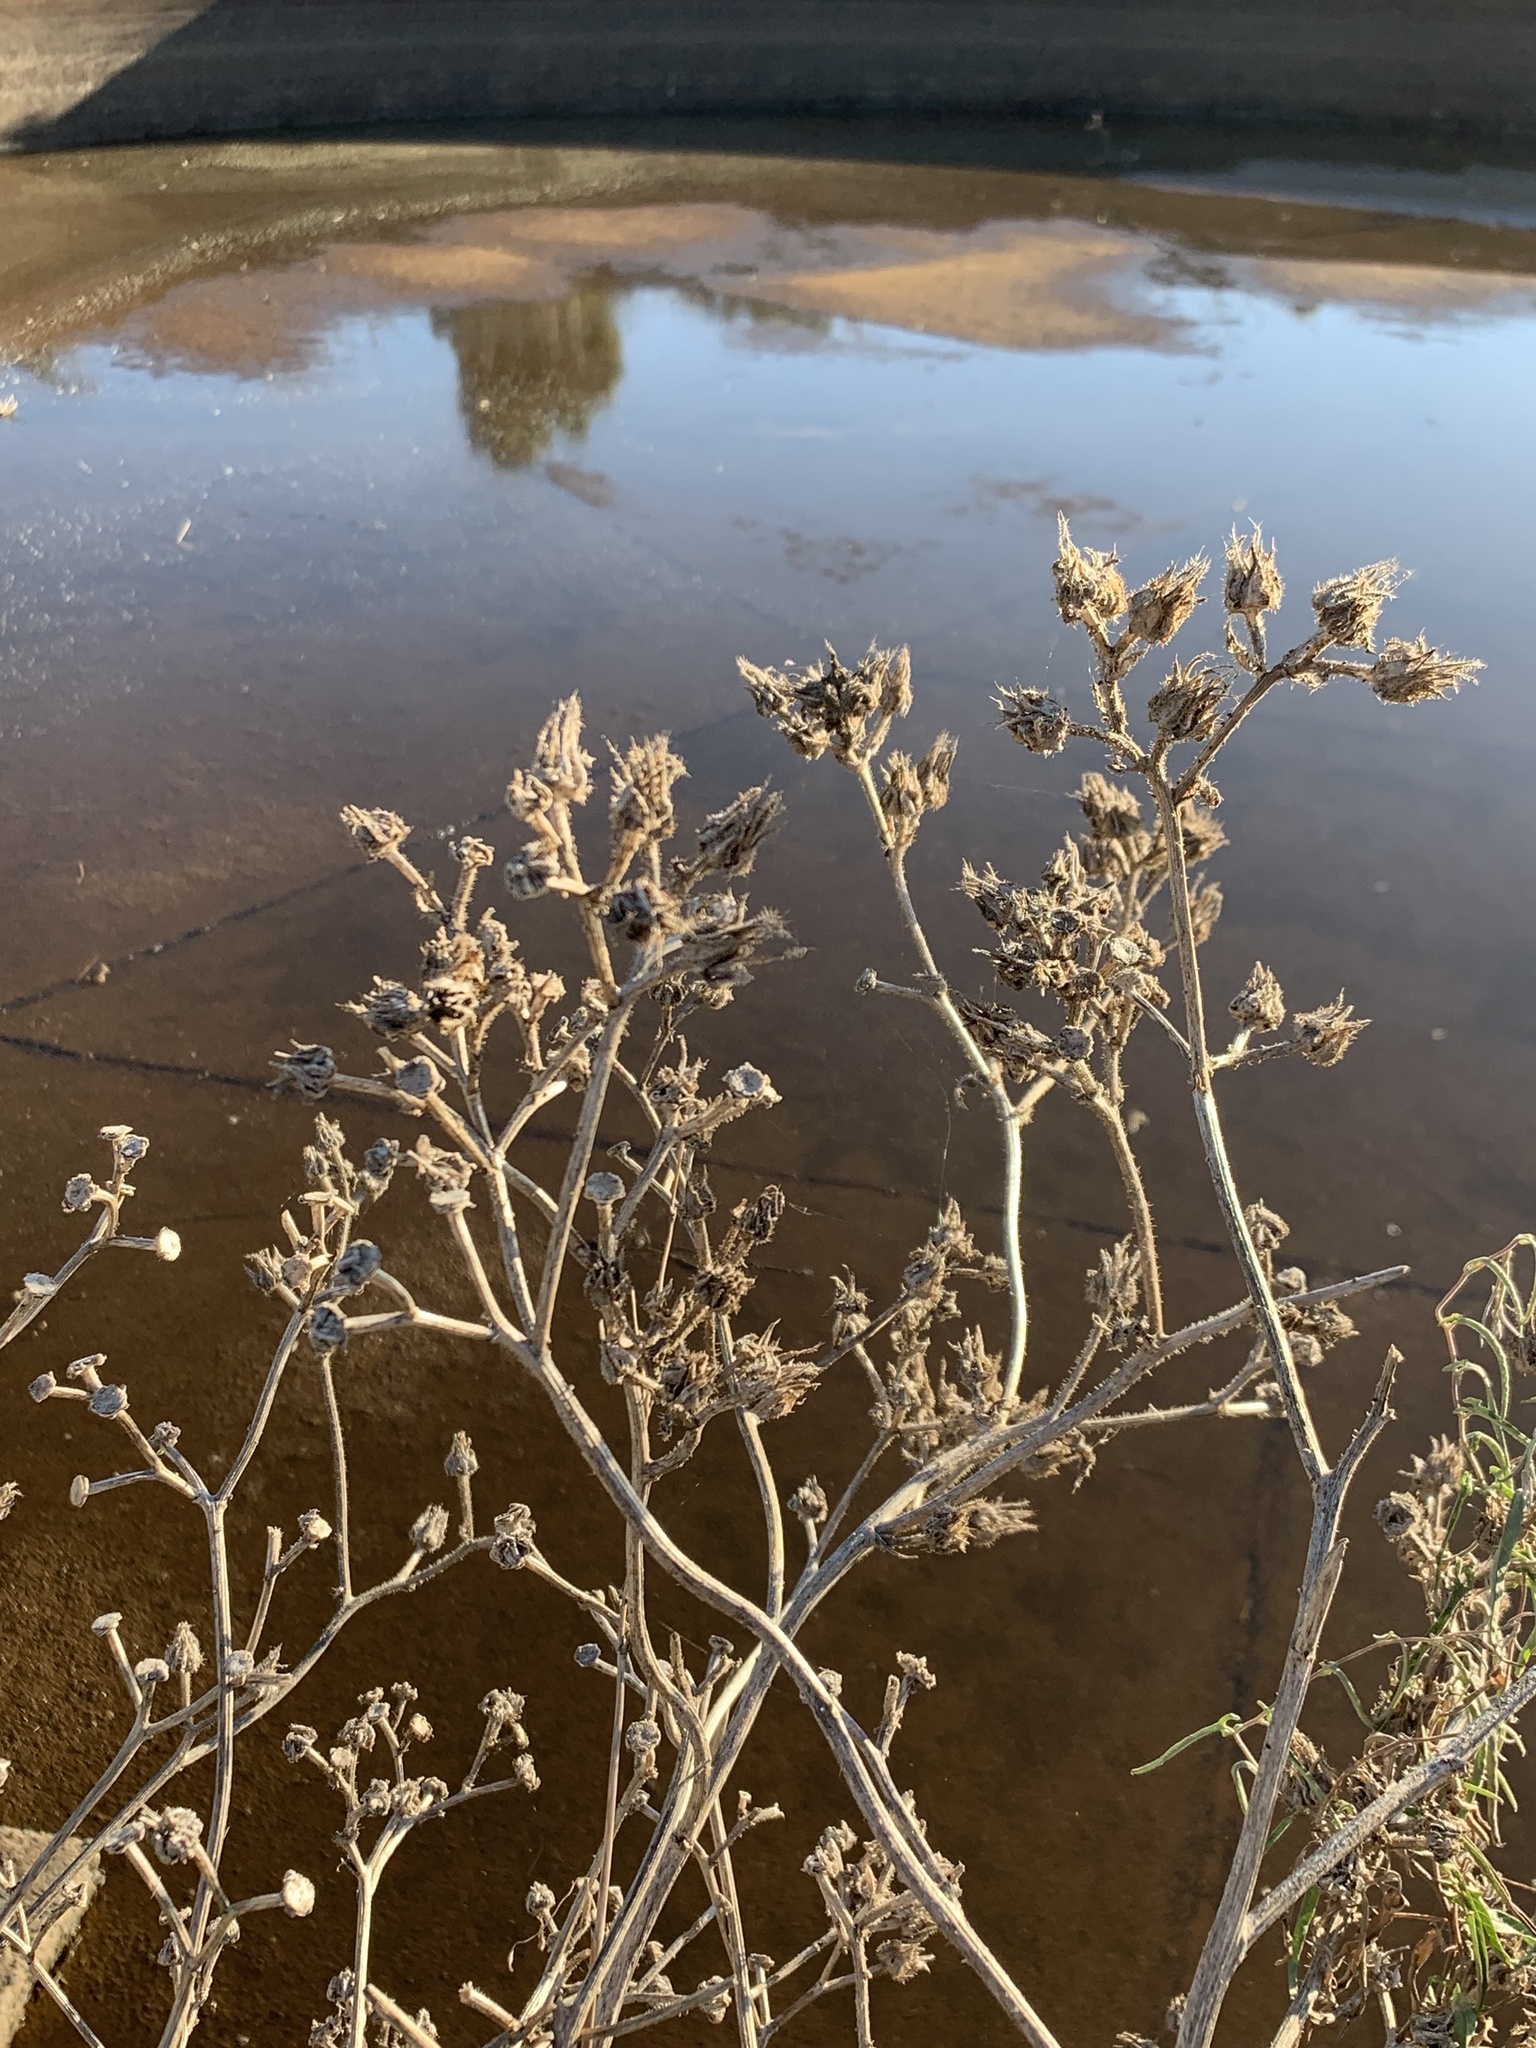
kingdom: Plantae
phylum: Tracheophyta
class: Magnoliopsida
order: Asterales
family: Asteraceae
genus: Helminthotheca
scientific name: Helminthotheca echioides
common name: Ox-tongue
